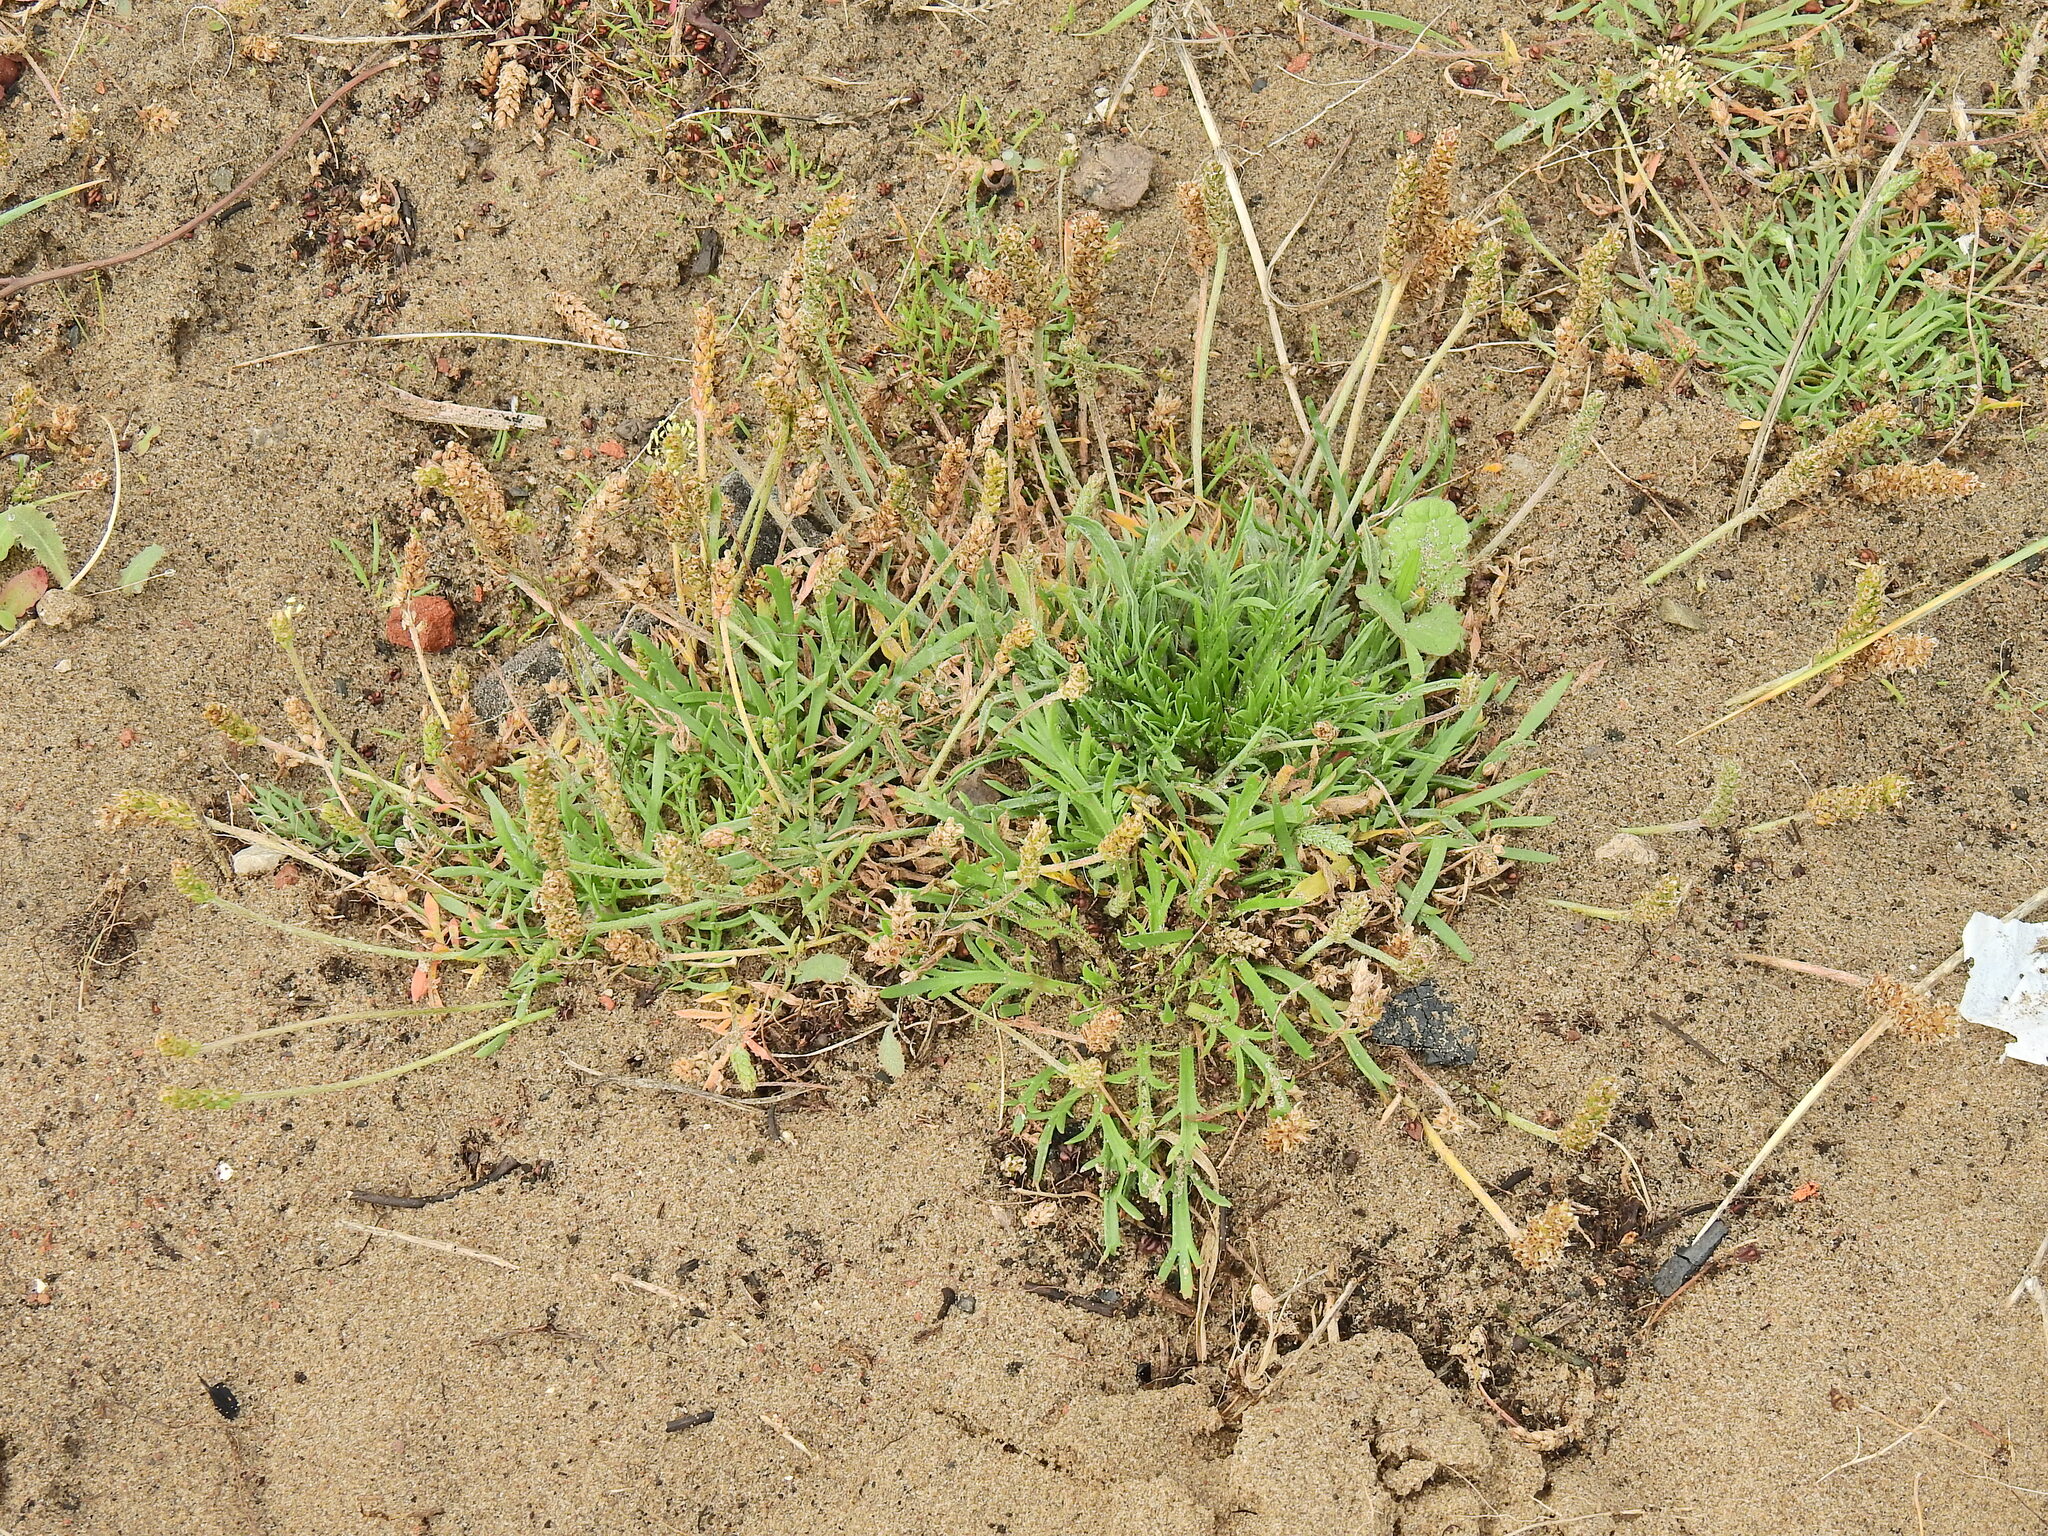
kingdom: Plantae
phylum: Tracheophyta
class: Magnoliopsida
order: Lamiales
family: Plantaginaceae
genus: Plantago
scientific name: Plantago coronopus
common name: Buck's-horn plantain
